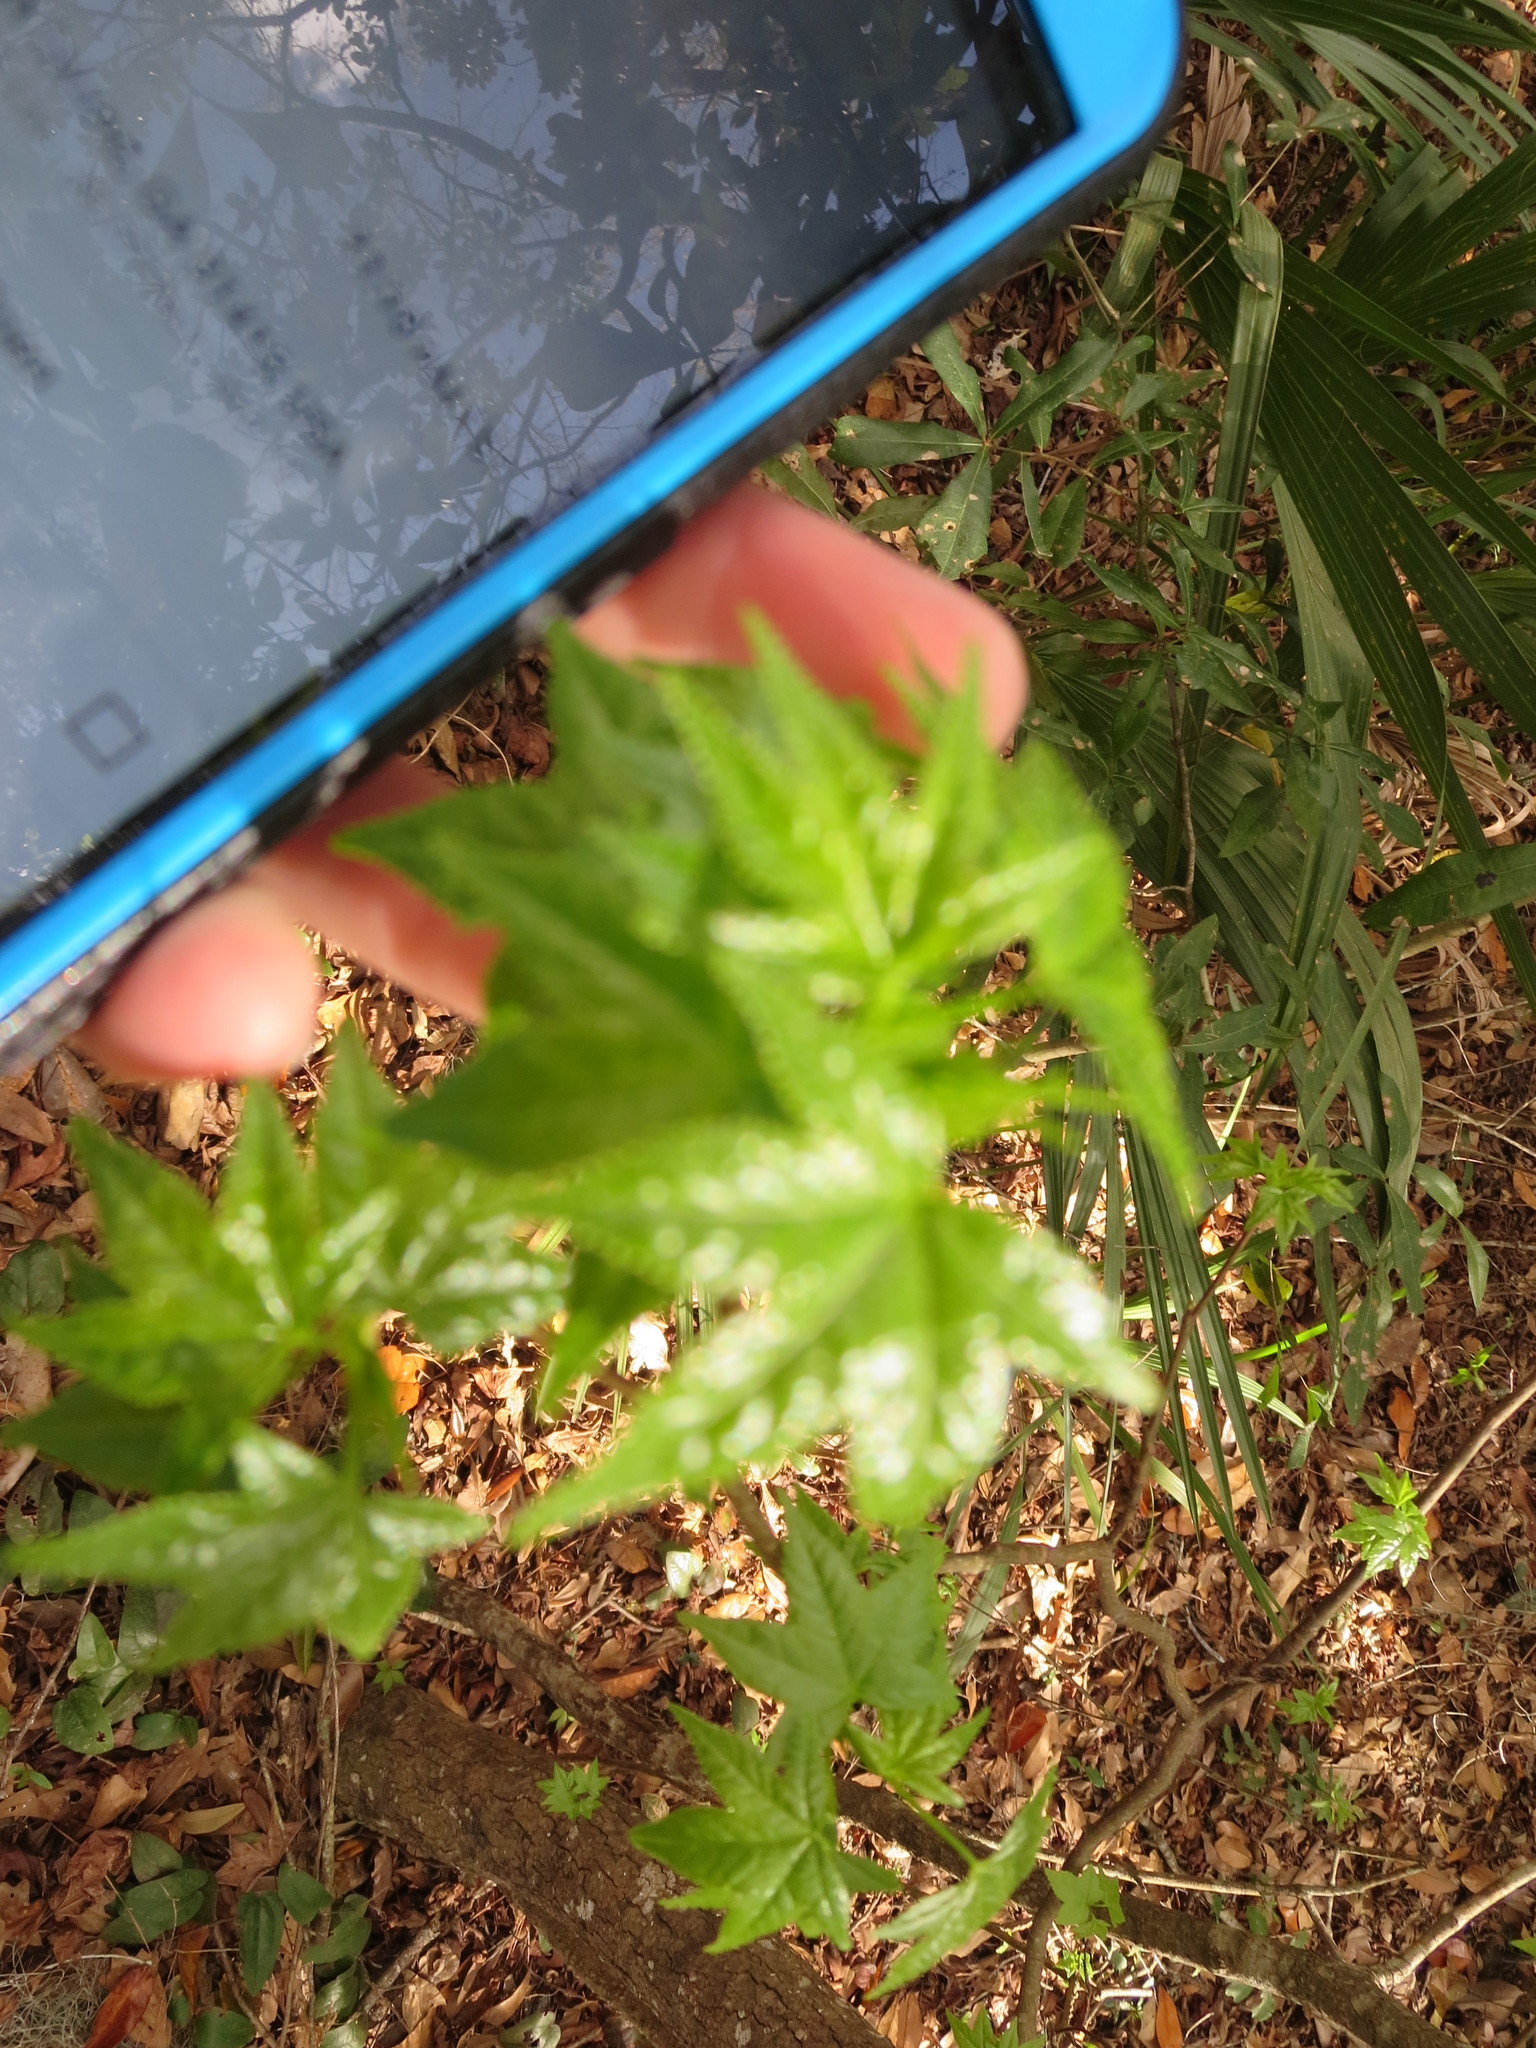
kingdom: Plantae
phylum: Tracheophyta
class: Magnoliopsida
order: Saxifragales
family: Altingiaceae
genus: Liquidambar
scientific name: Liquidambar styraciflua
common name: Sweet gum
